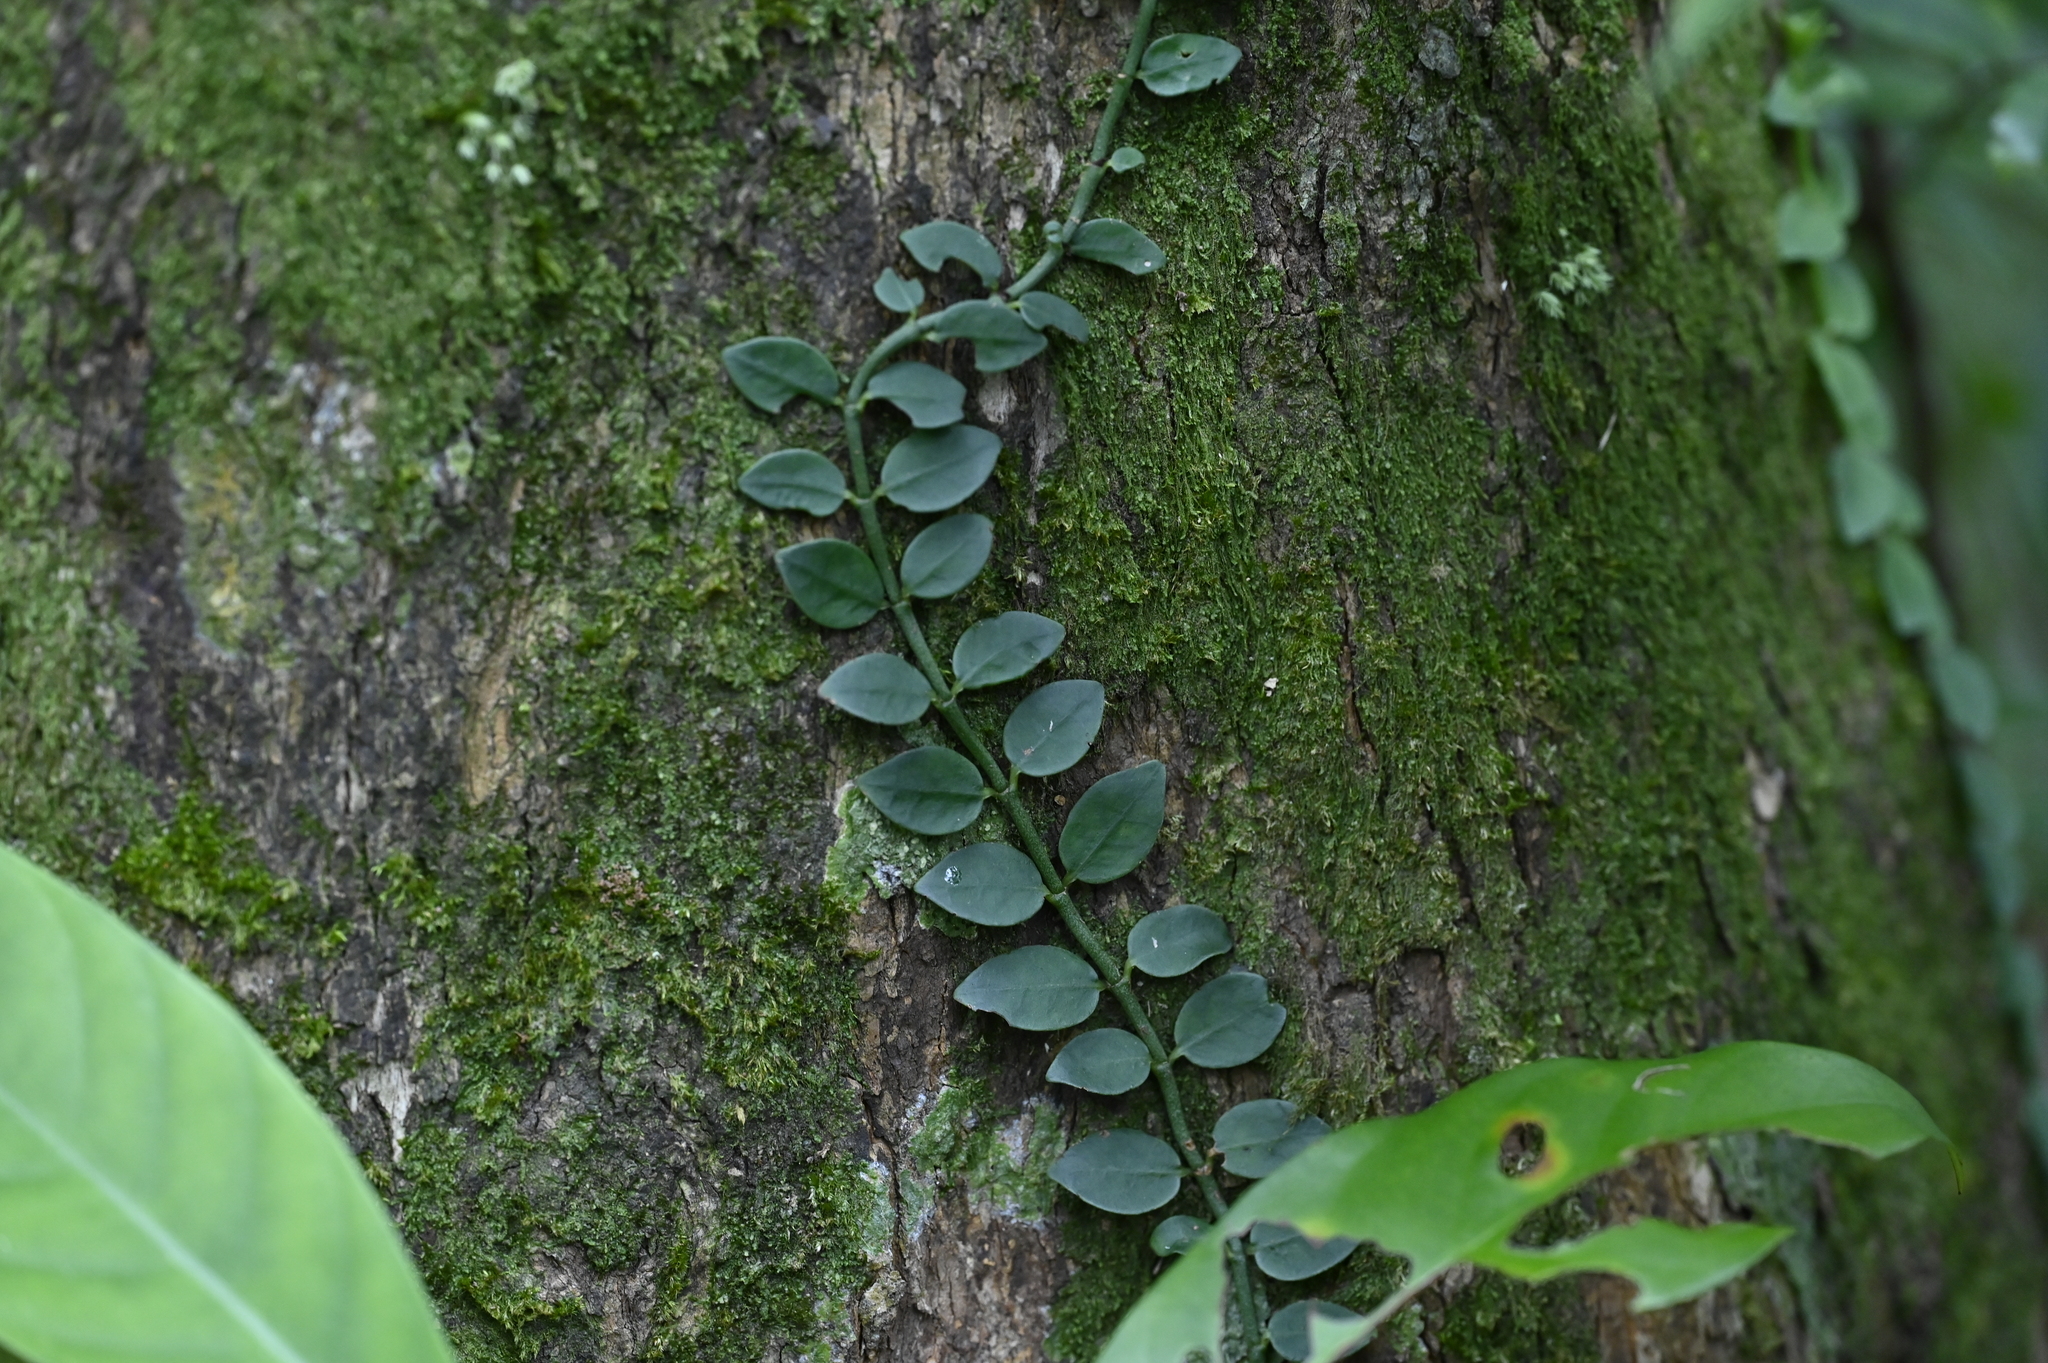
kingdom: Plantae
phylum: Tracheophyta
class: Magnoliopsida
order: Gentianales
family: Rubiaceae
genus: Psychotria
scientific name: Psychotria serpens
